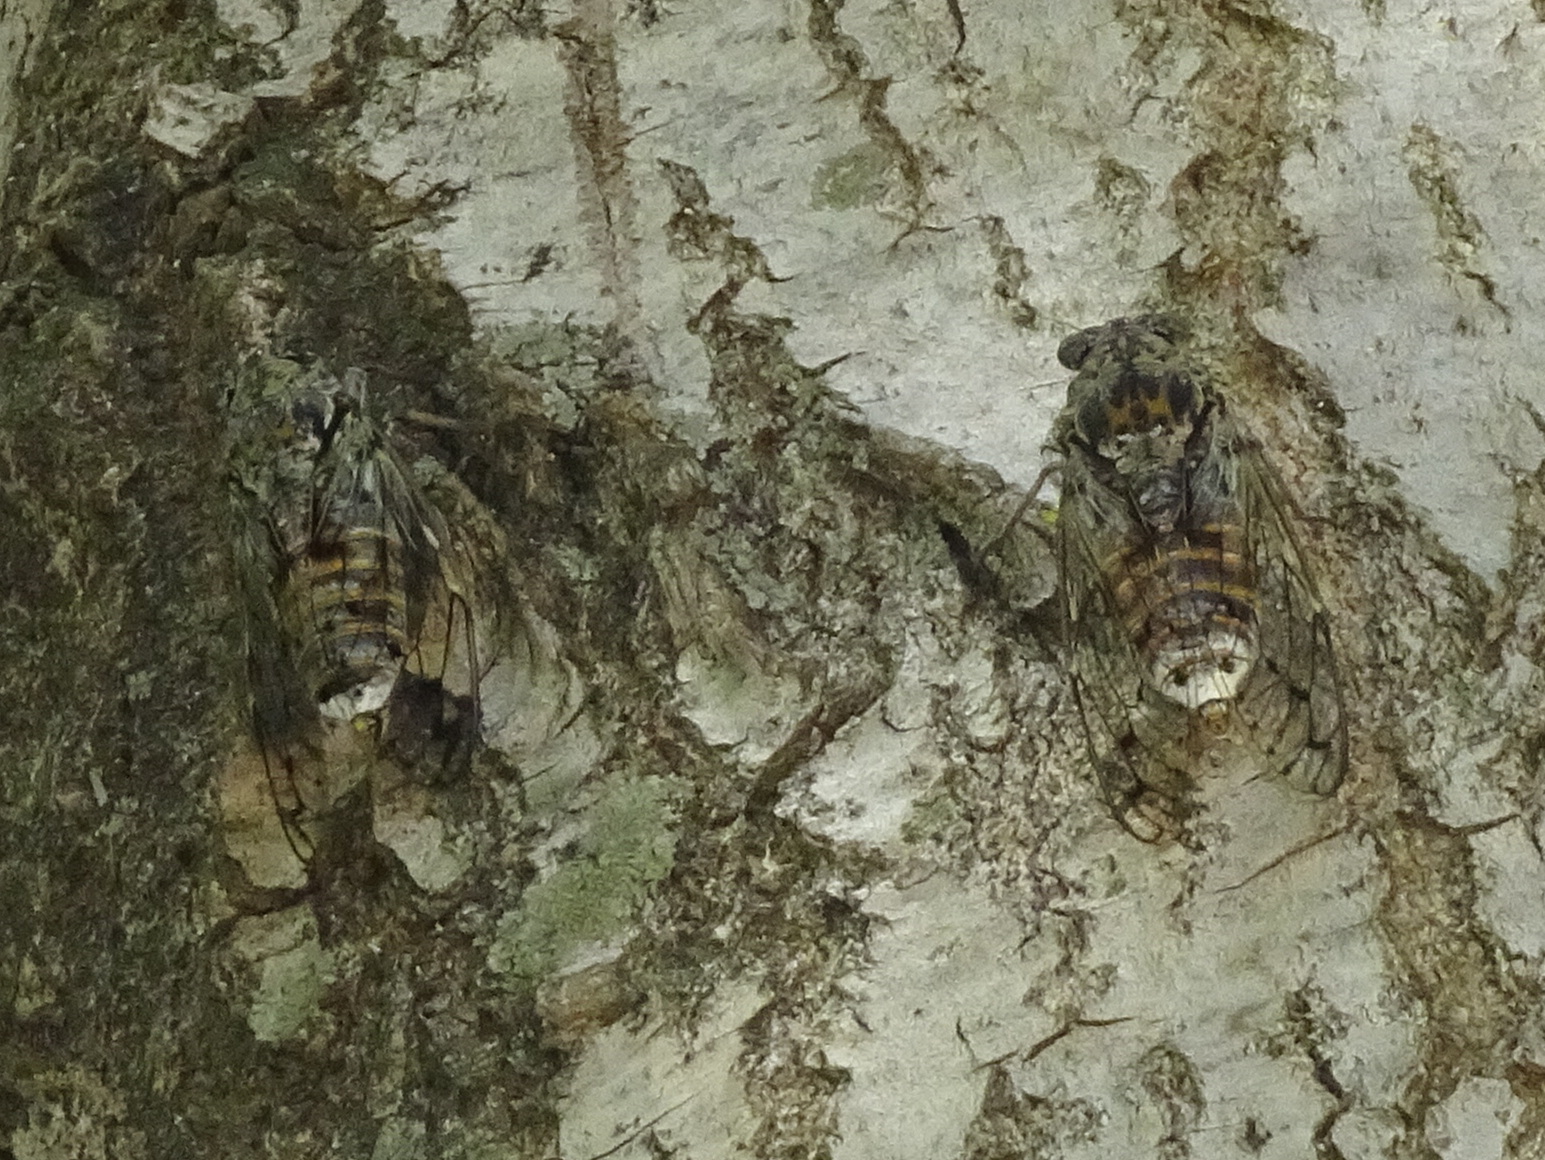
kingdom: Animalia
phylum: Arthropoda
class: Insecta
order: Hemiptera
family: Cicadidae
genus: Cicada
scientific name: Cicada orni
